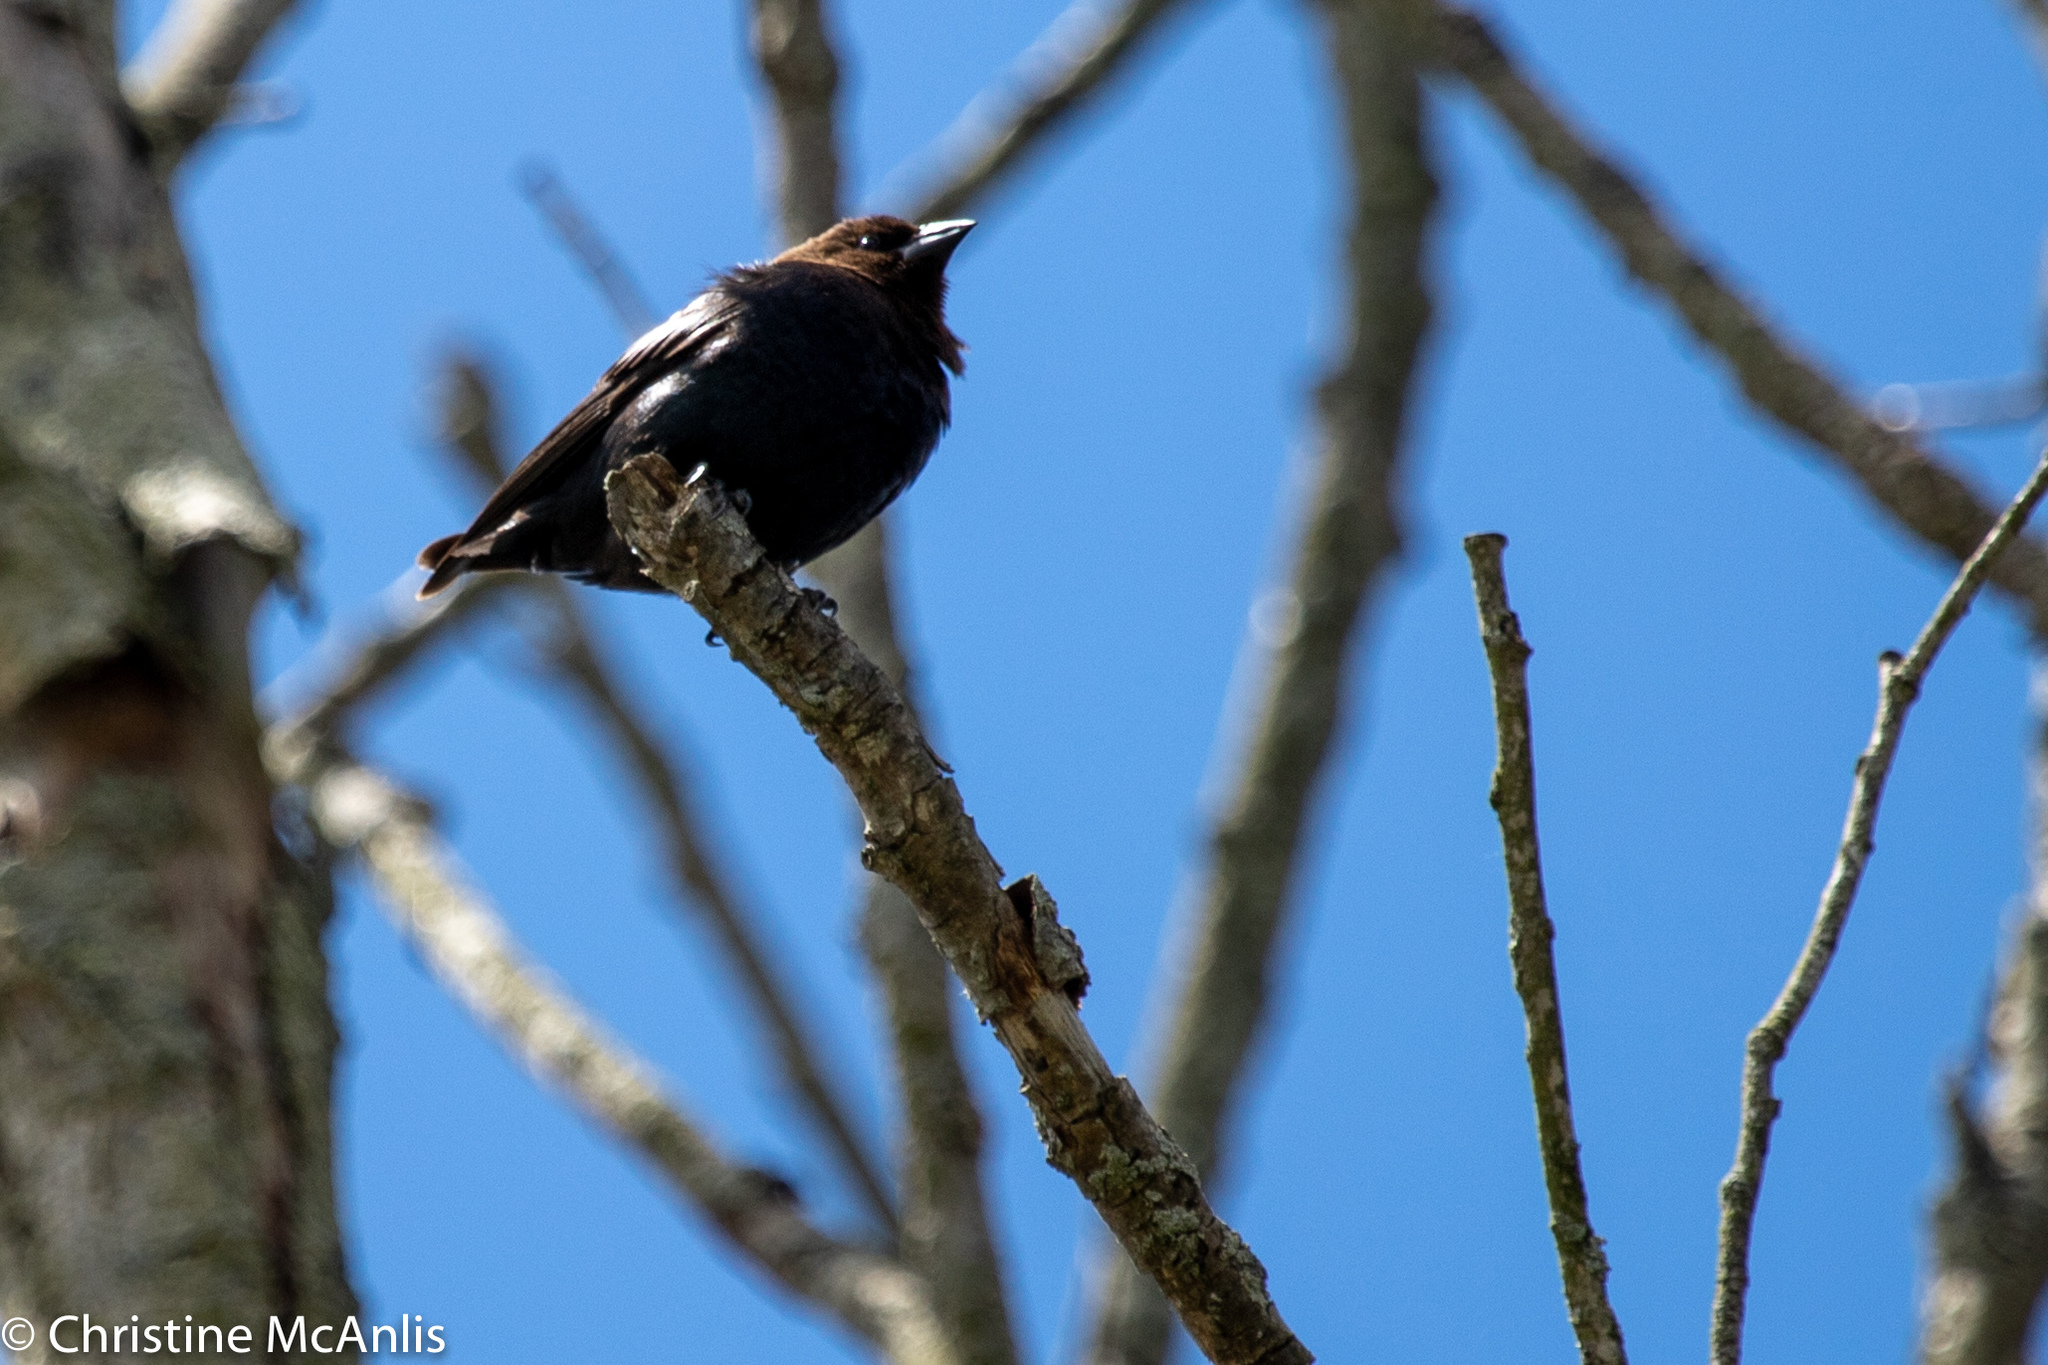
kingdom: Animalia
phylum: Chordata
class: Aves
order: Passeriformes
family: Icteridae
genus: Molothrus
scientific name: Molothrus ater
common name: Brown-headed cowbird
